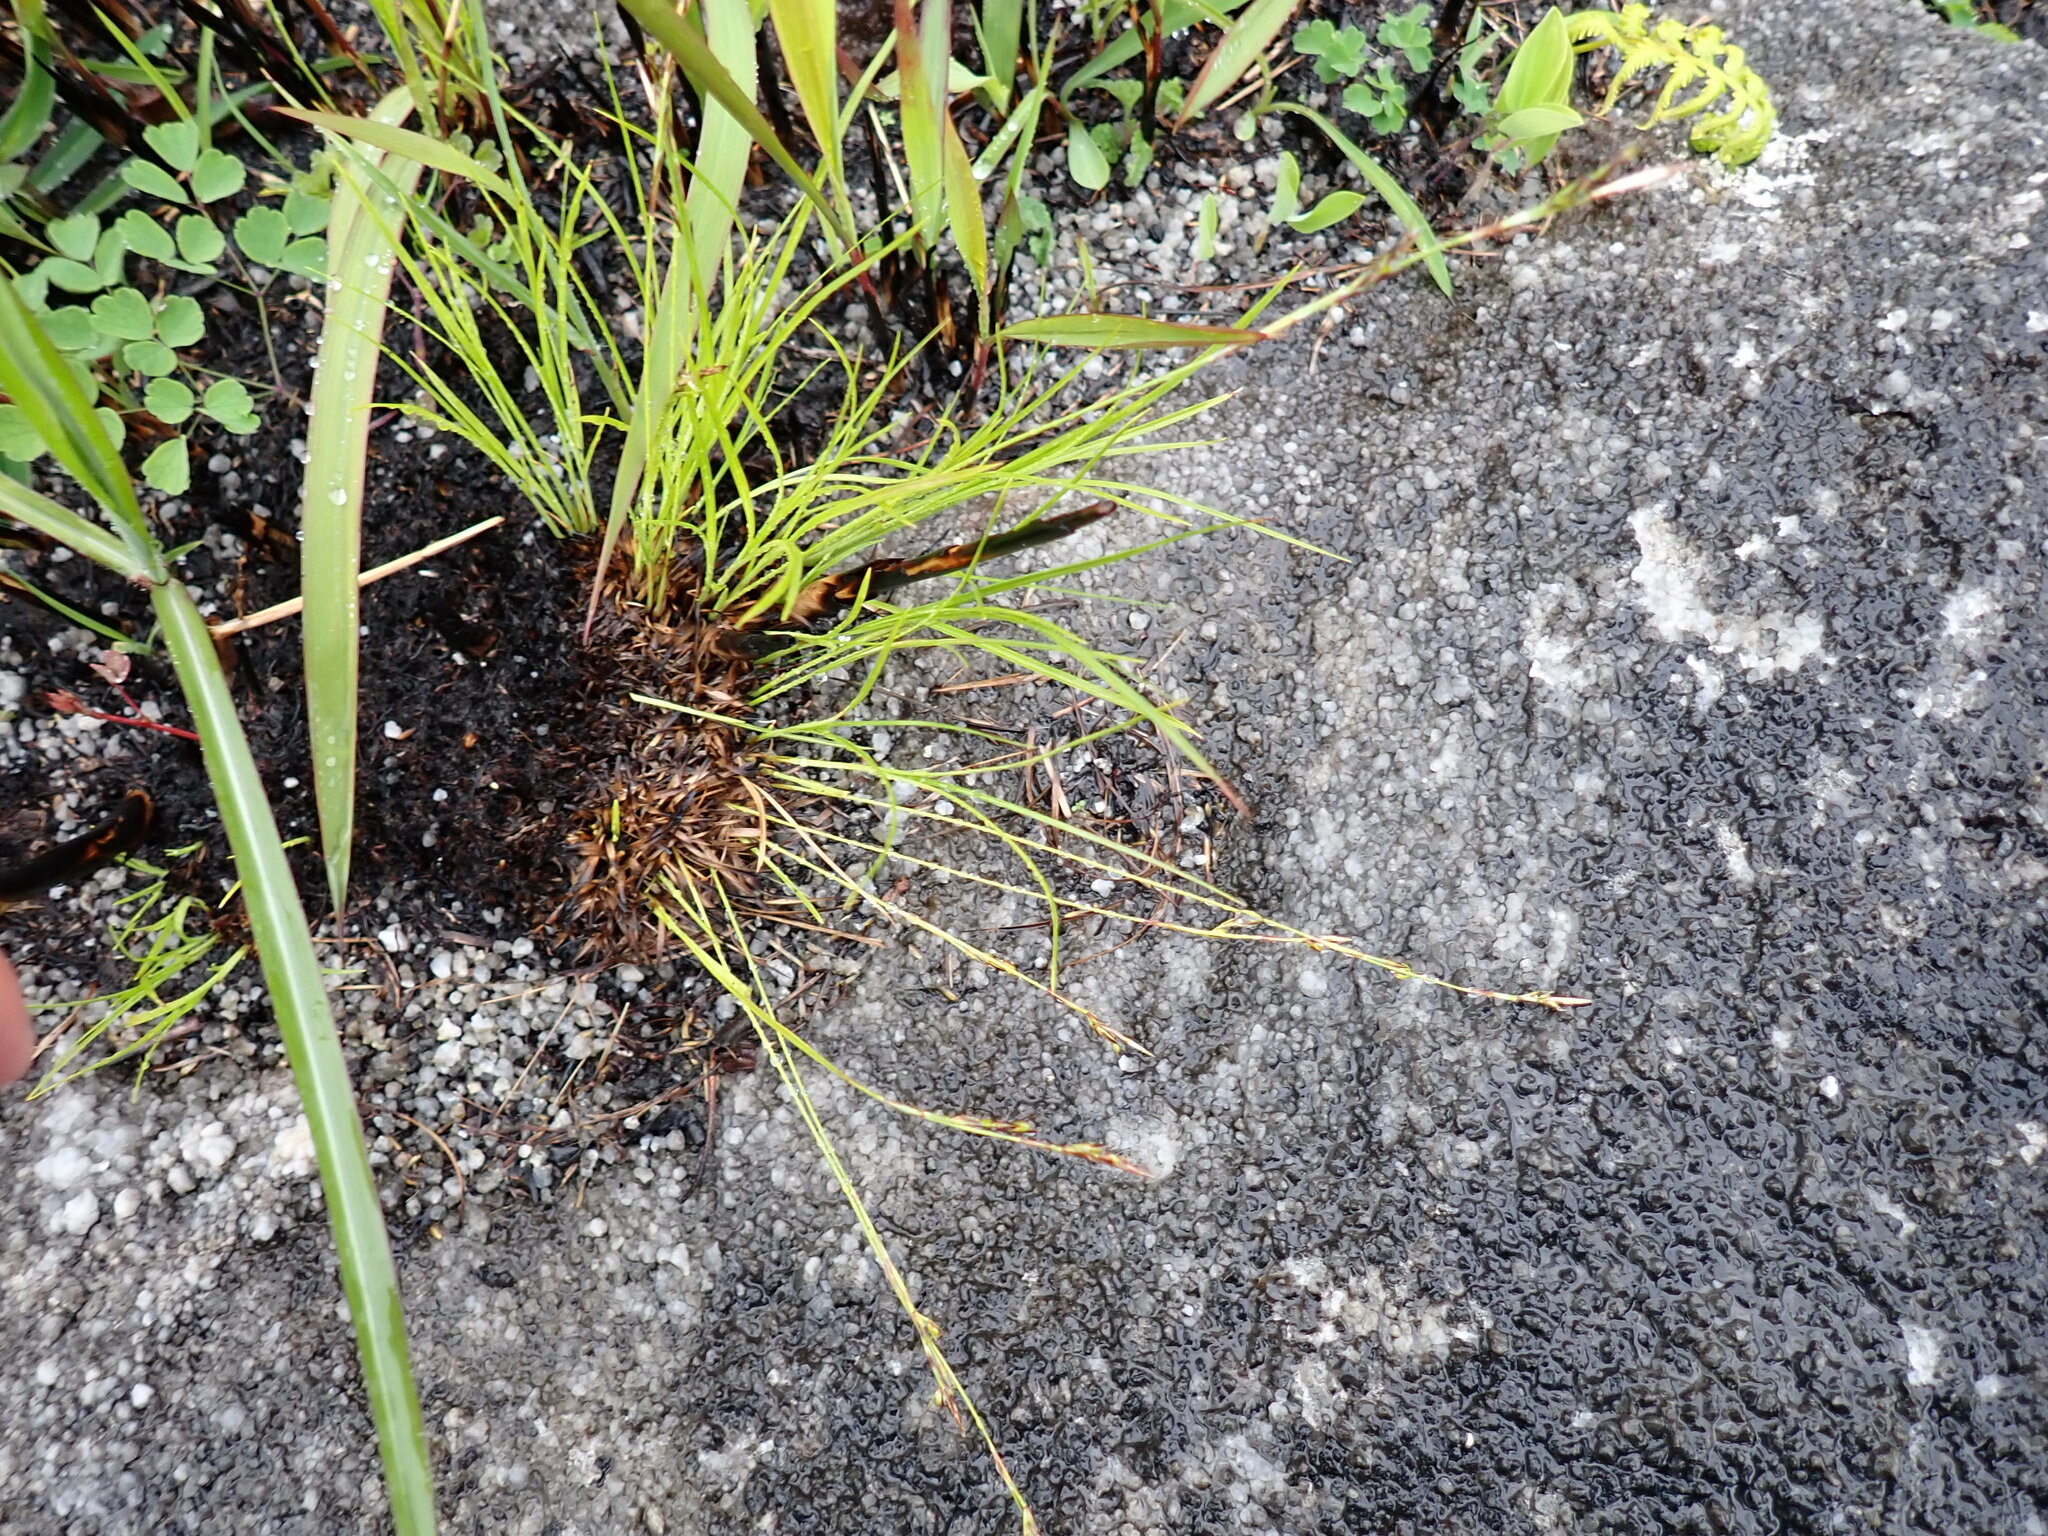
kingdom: Plantae
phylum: Tracheophyta
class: Liliopsida
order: Poales
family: Cyperaceae
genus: Carex
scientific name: Carex lanceolata
